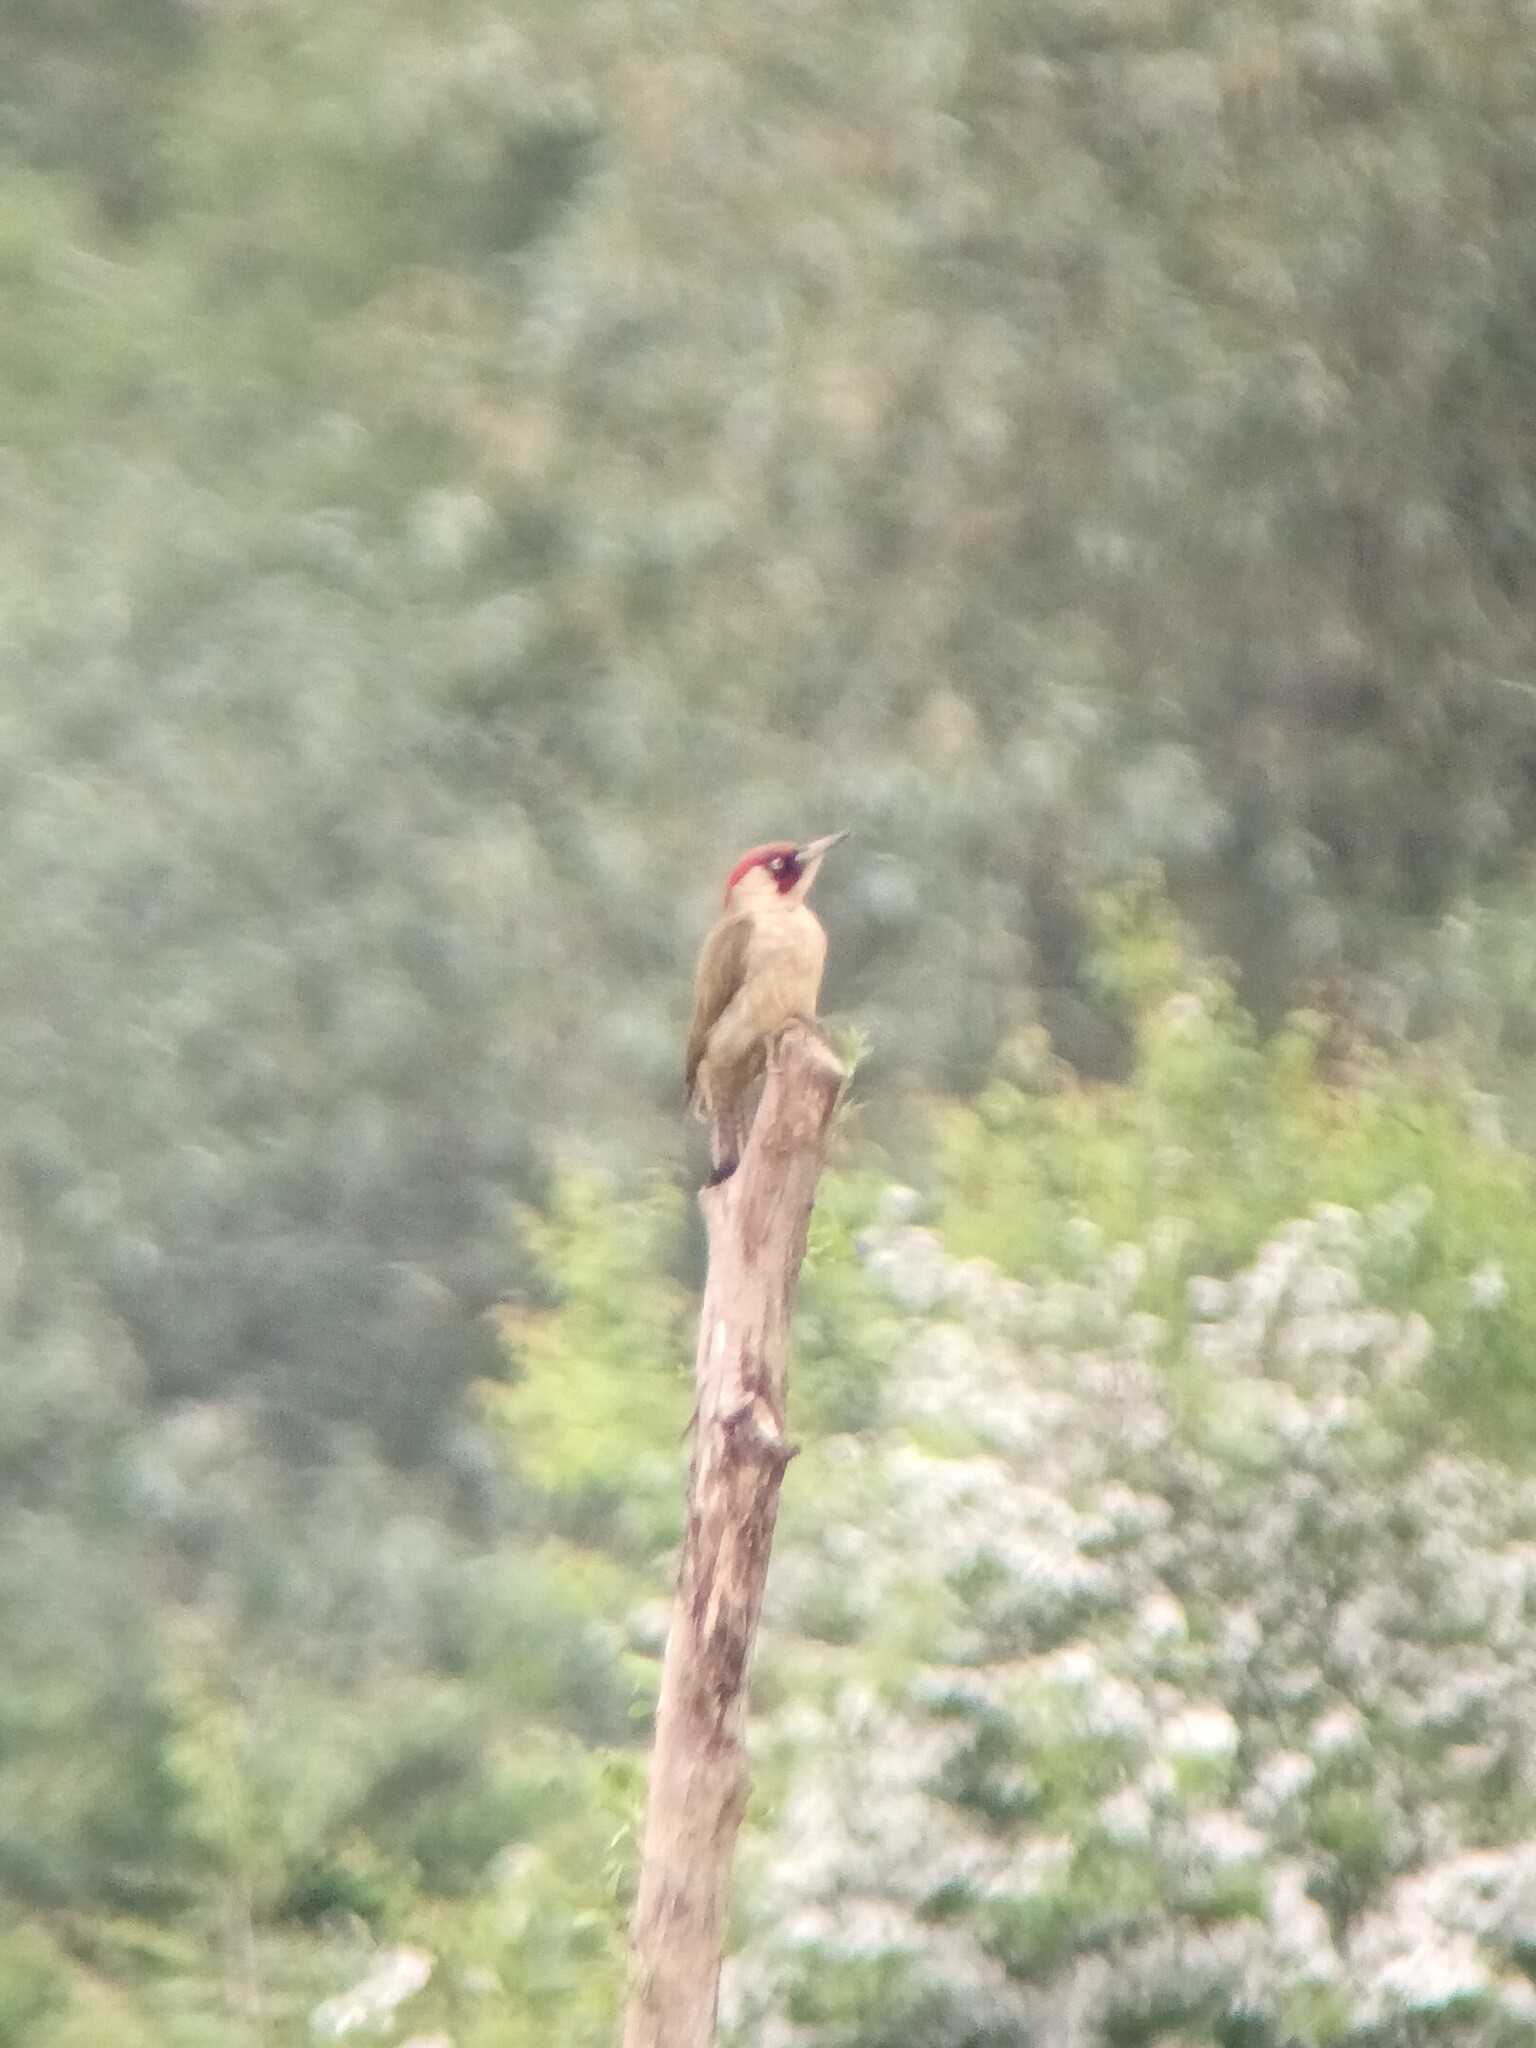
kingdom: Animalia
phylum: Chordata
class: Aves
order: Piciformes
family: Picidae
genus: Picus
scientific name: Picus viridis
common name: European green woodpecker
